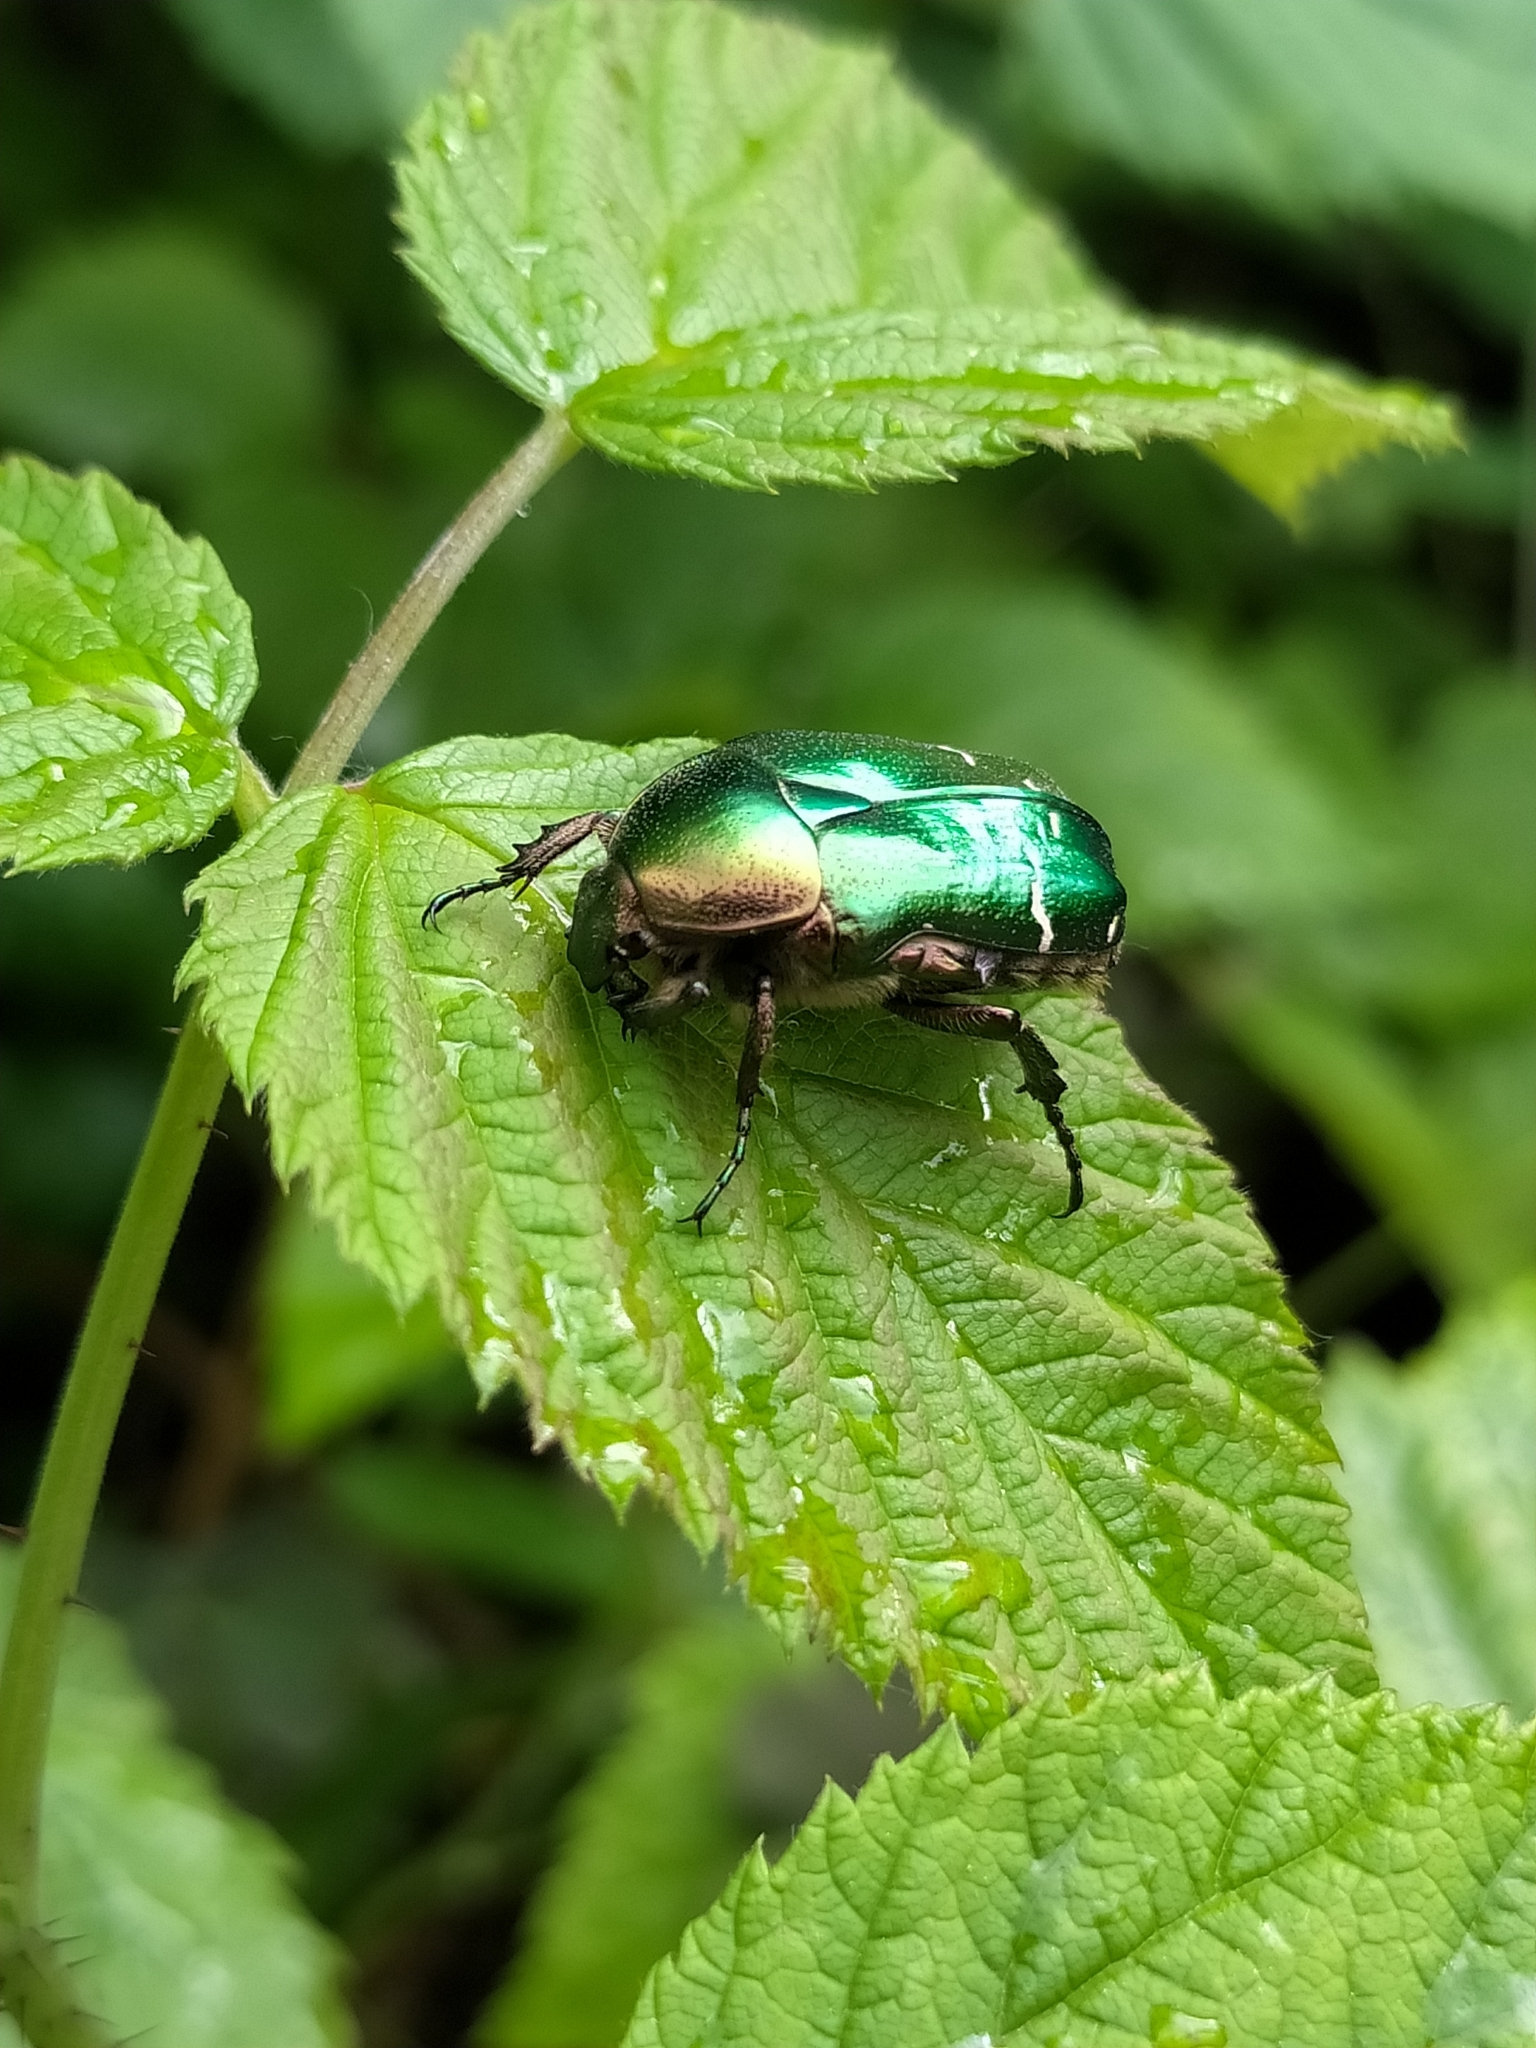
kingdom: Animalia
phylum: Arthropoda
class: Insecta
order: Coleoptera
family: Scarabaeidae
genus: Cetonia
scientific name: Cetonia aurata
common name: Rose chafer
